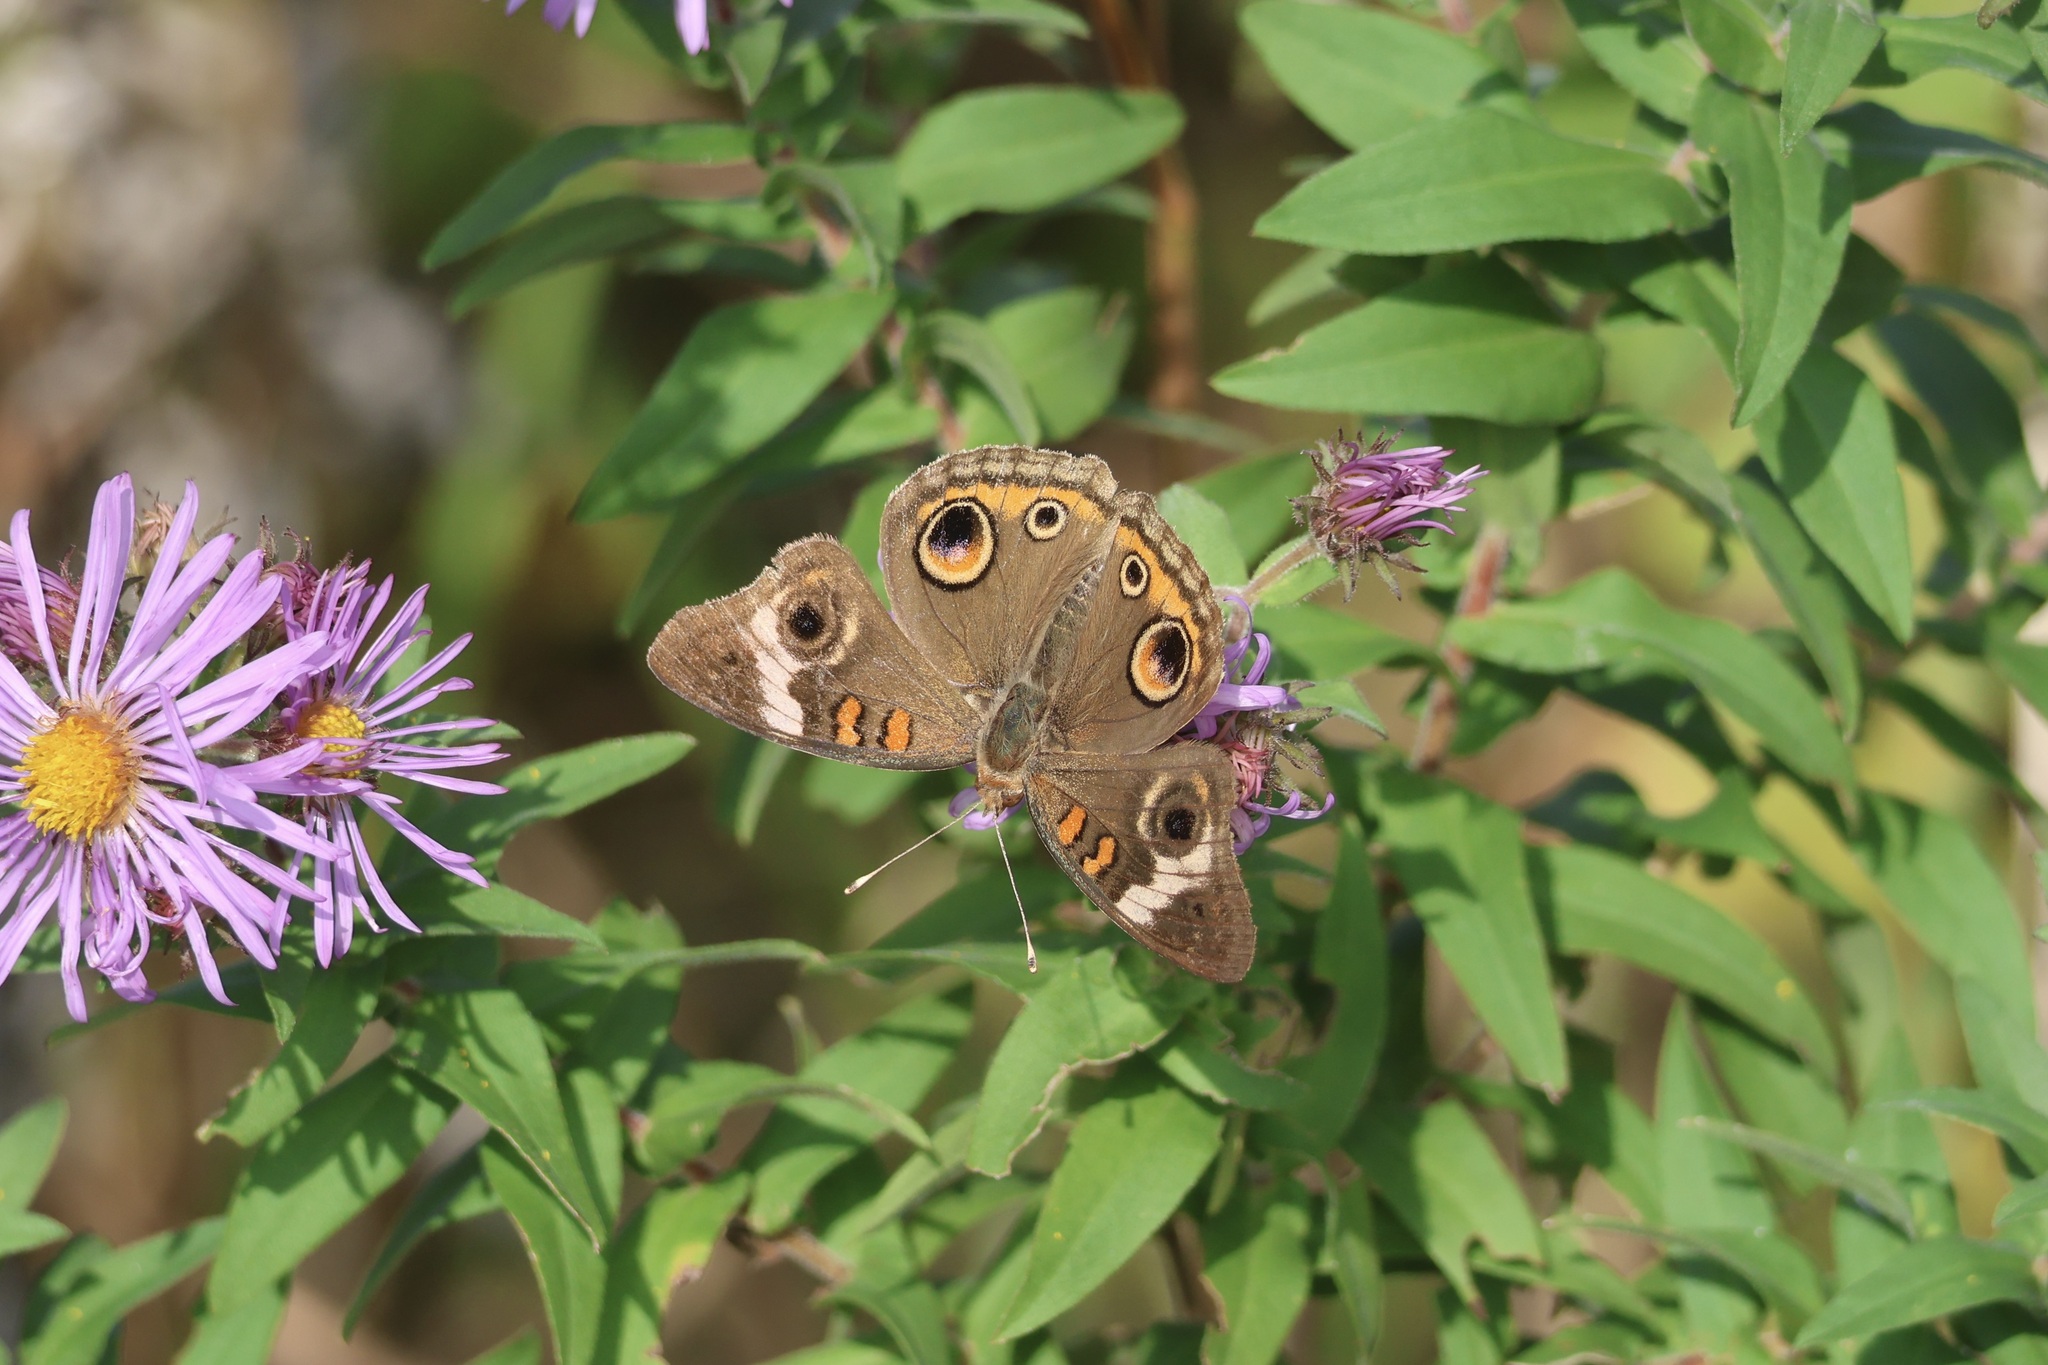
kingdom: Animalia
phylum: Arthropoda
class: Insecta
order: Lepidoptera
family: Nymphalidae
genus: Junonia
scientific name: Junonia coenia
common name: Common buckeye
